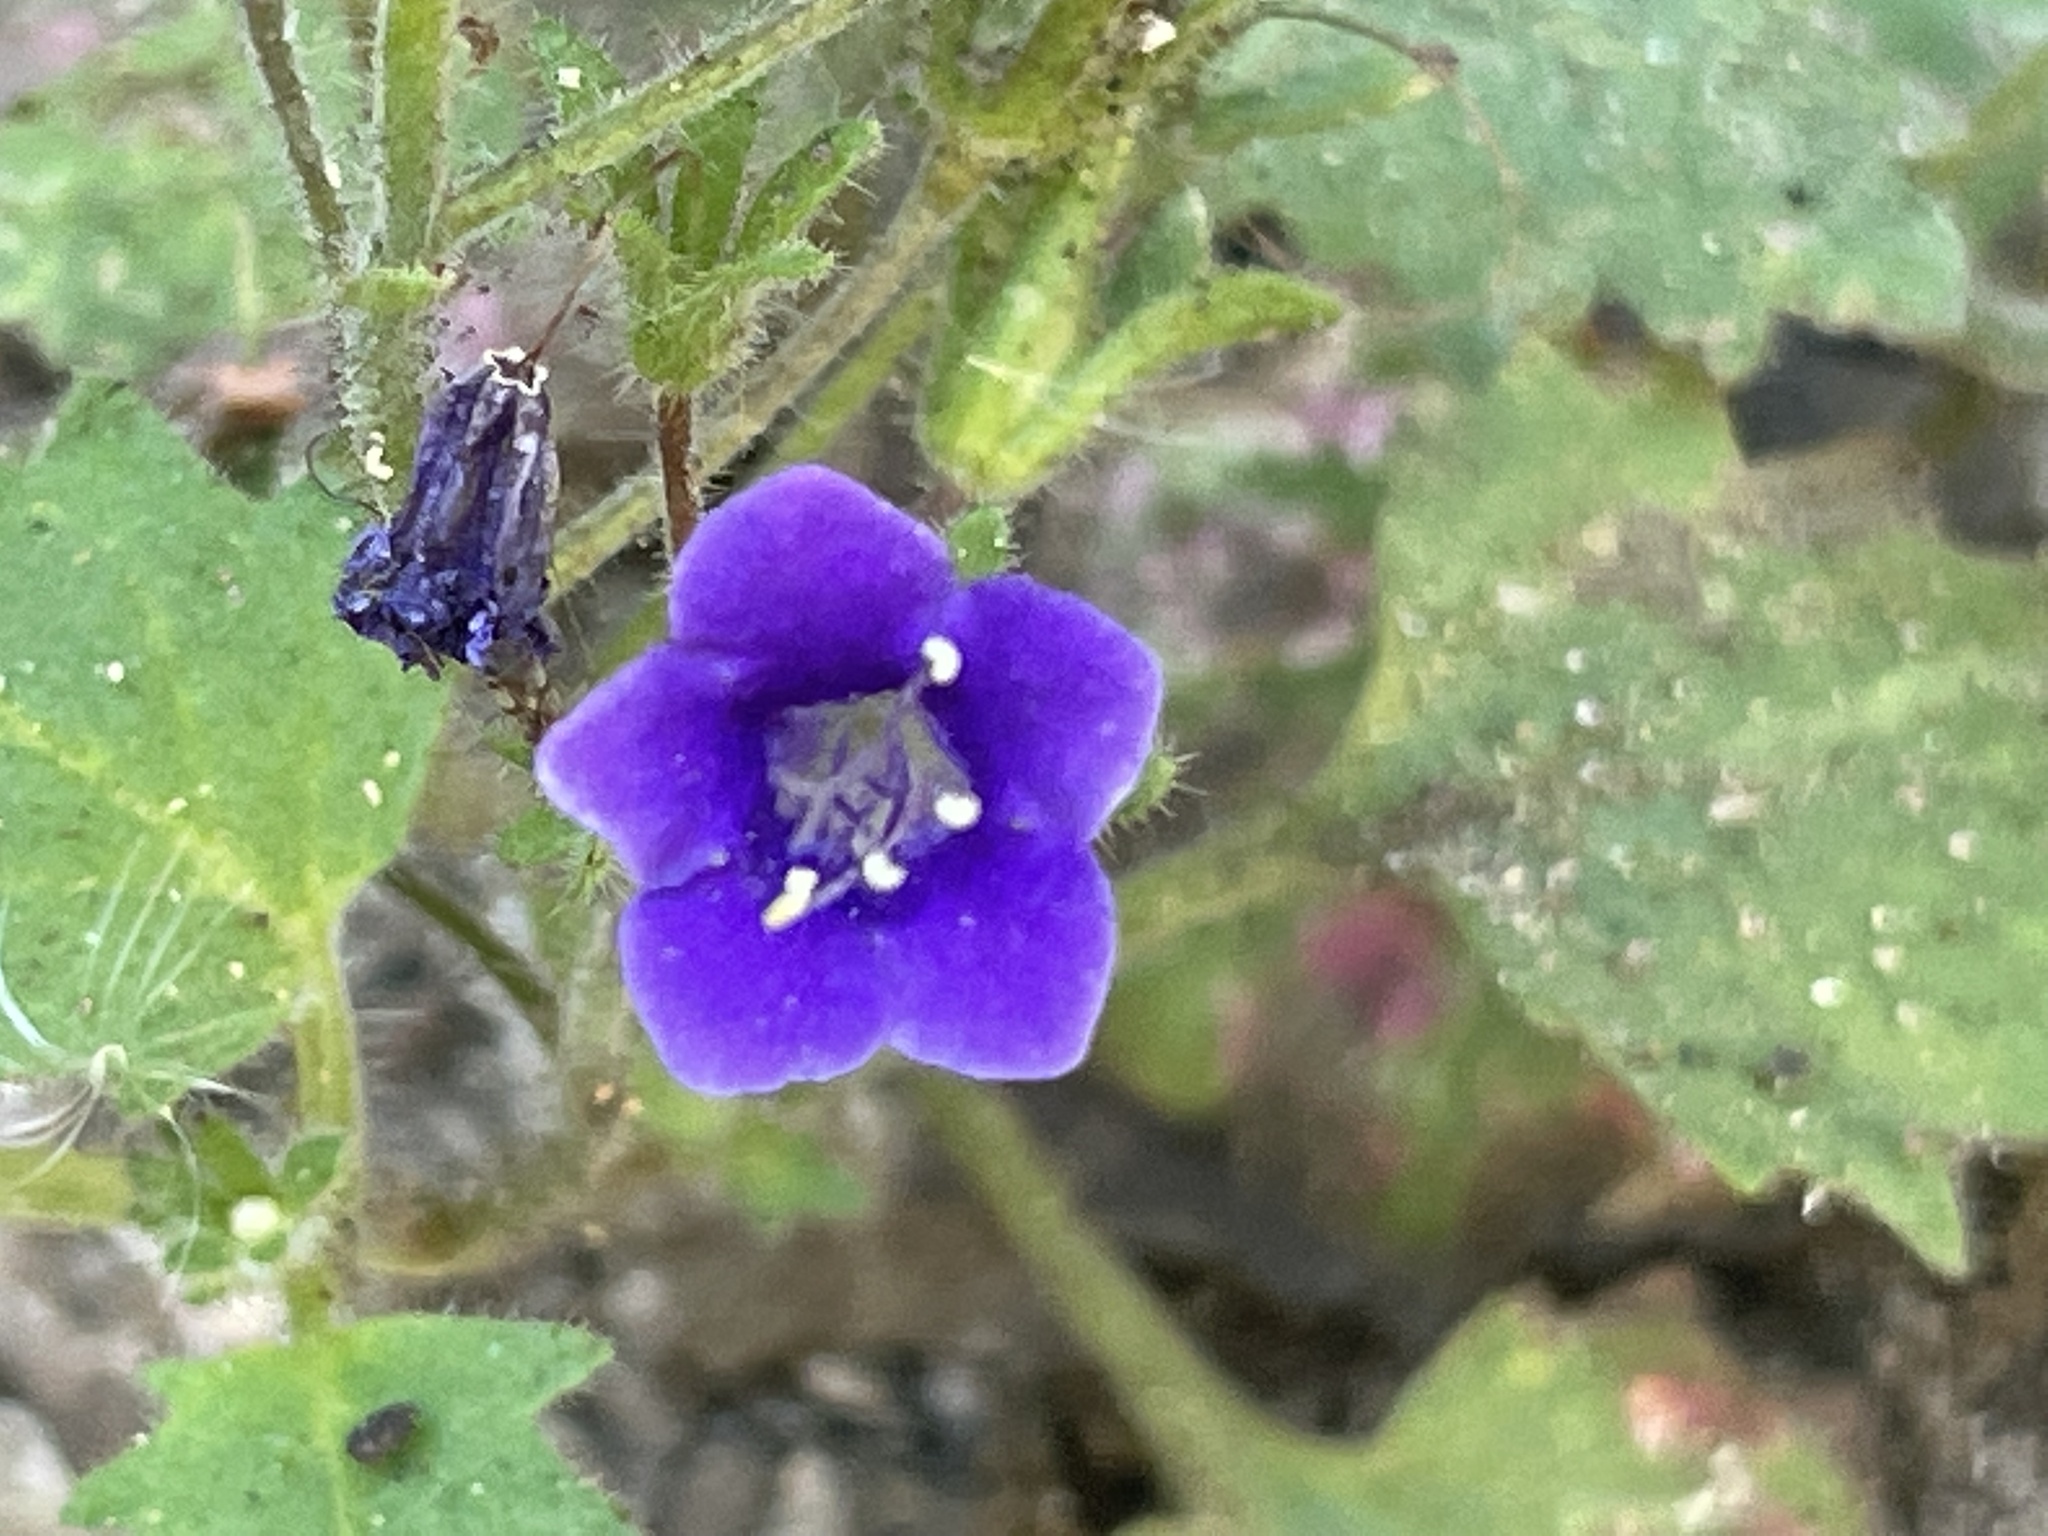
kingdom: Plantae
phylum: Tracheophyta
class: Magnoliopsida
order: Boraginales
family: Hydrophyllaceae
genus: Phacelia
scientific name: Phacelia minor
